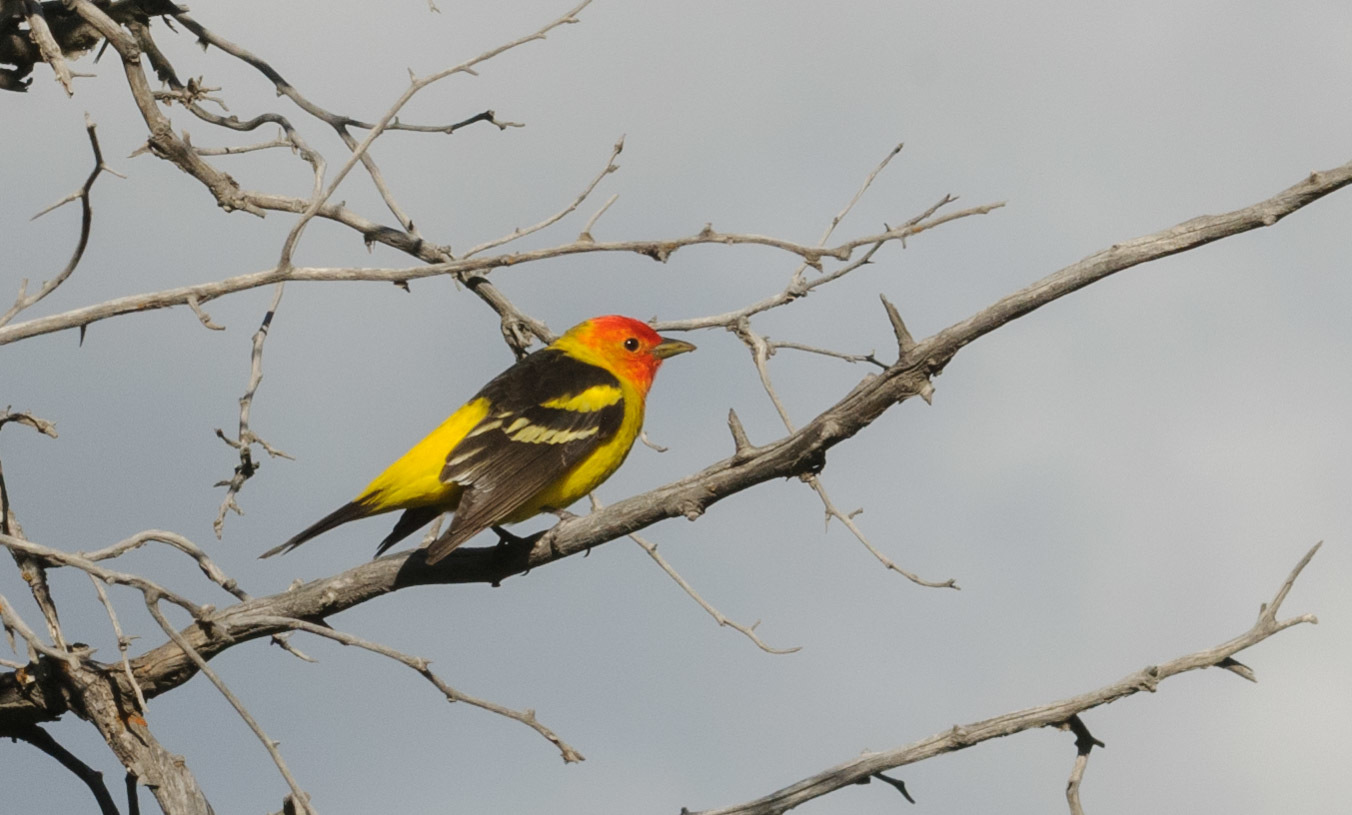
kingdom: Animalia
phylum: Chordata
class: Aves
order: Passeriformes
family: Cardinalidae
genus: Piranga
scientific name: Piranga ludoviciana
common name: Western tanager
